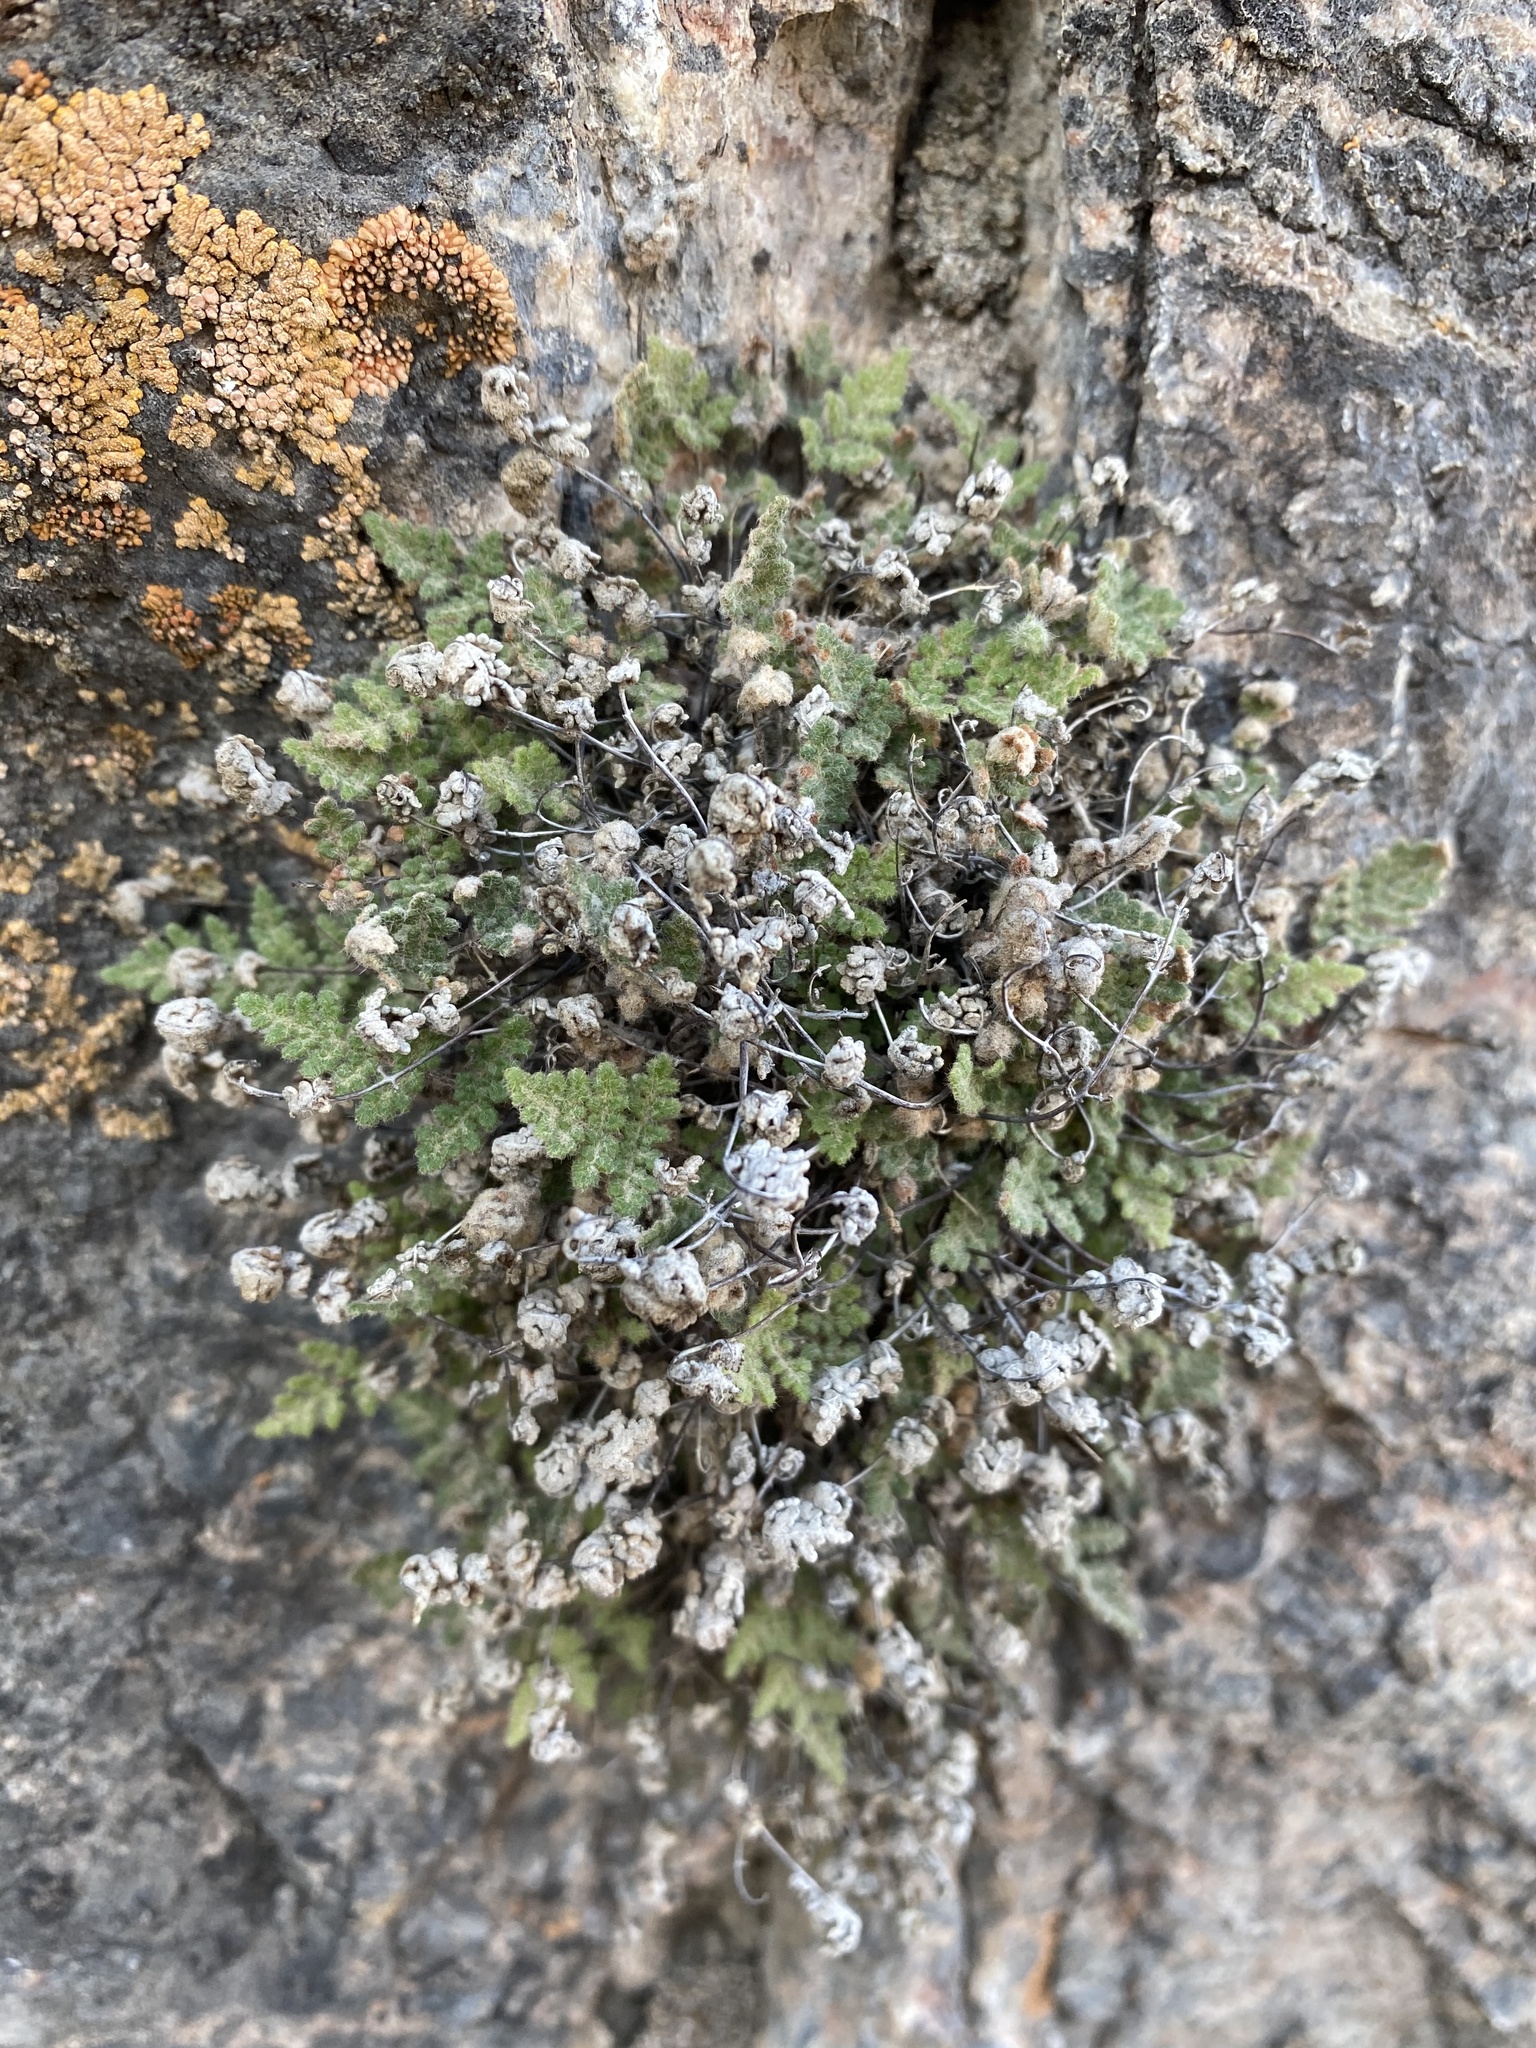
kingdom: Plantae
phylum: Tracheophyta
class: Polypodiopsida
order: Polypodiales
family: Pteridaceae
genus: Myriopteris
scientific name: Myriopteris gracilis
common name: Fee's lip fern
